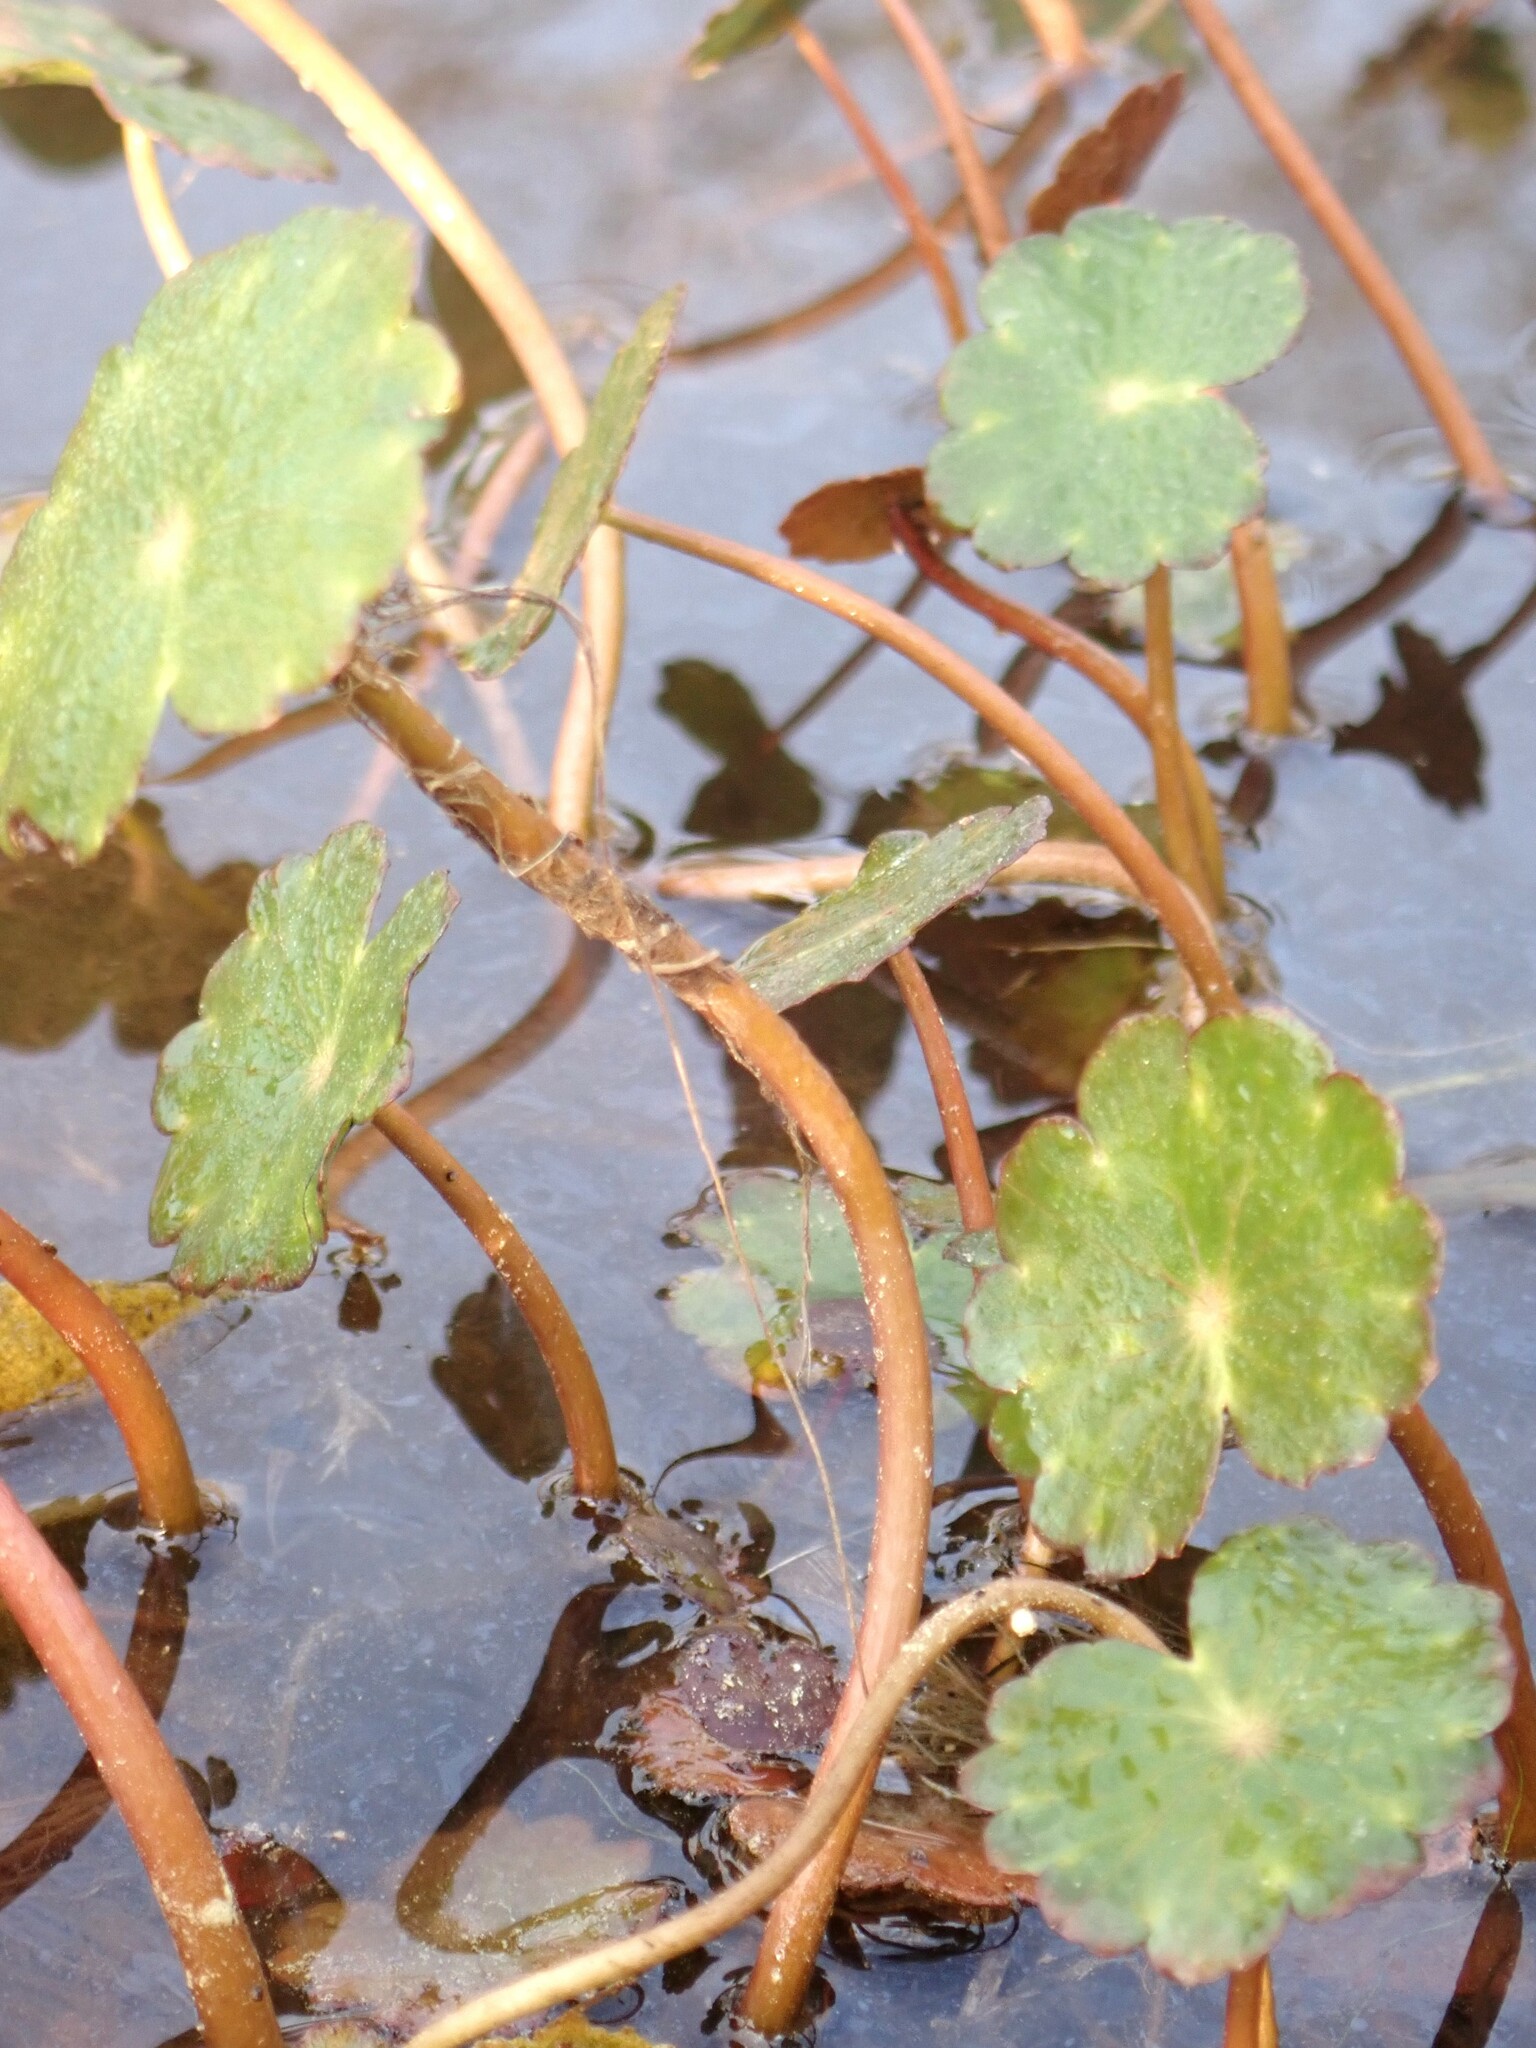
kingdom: Plantae
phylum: Tracheophyta
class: Magnoliopsida
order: Apiales
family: Araliaceae
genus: Hydrocotyle
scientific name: Hydrocotyle ranunculoides
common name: Floating pennywort
